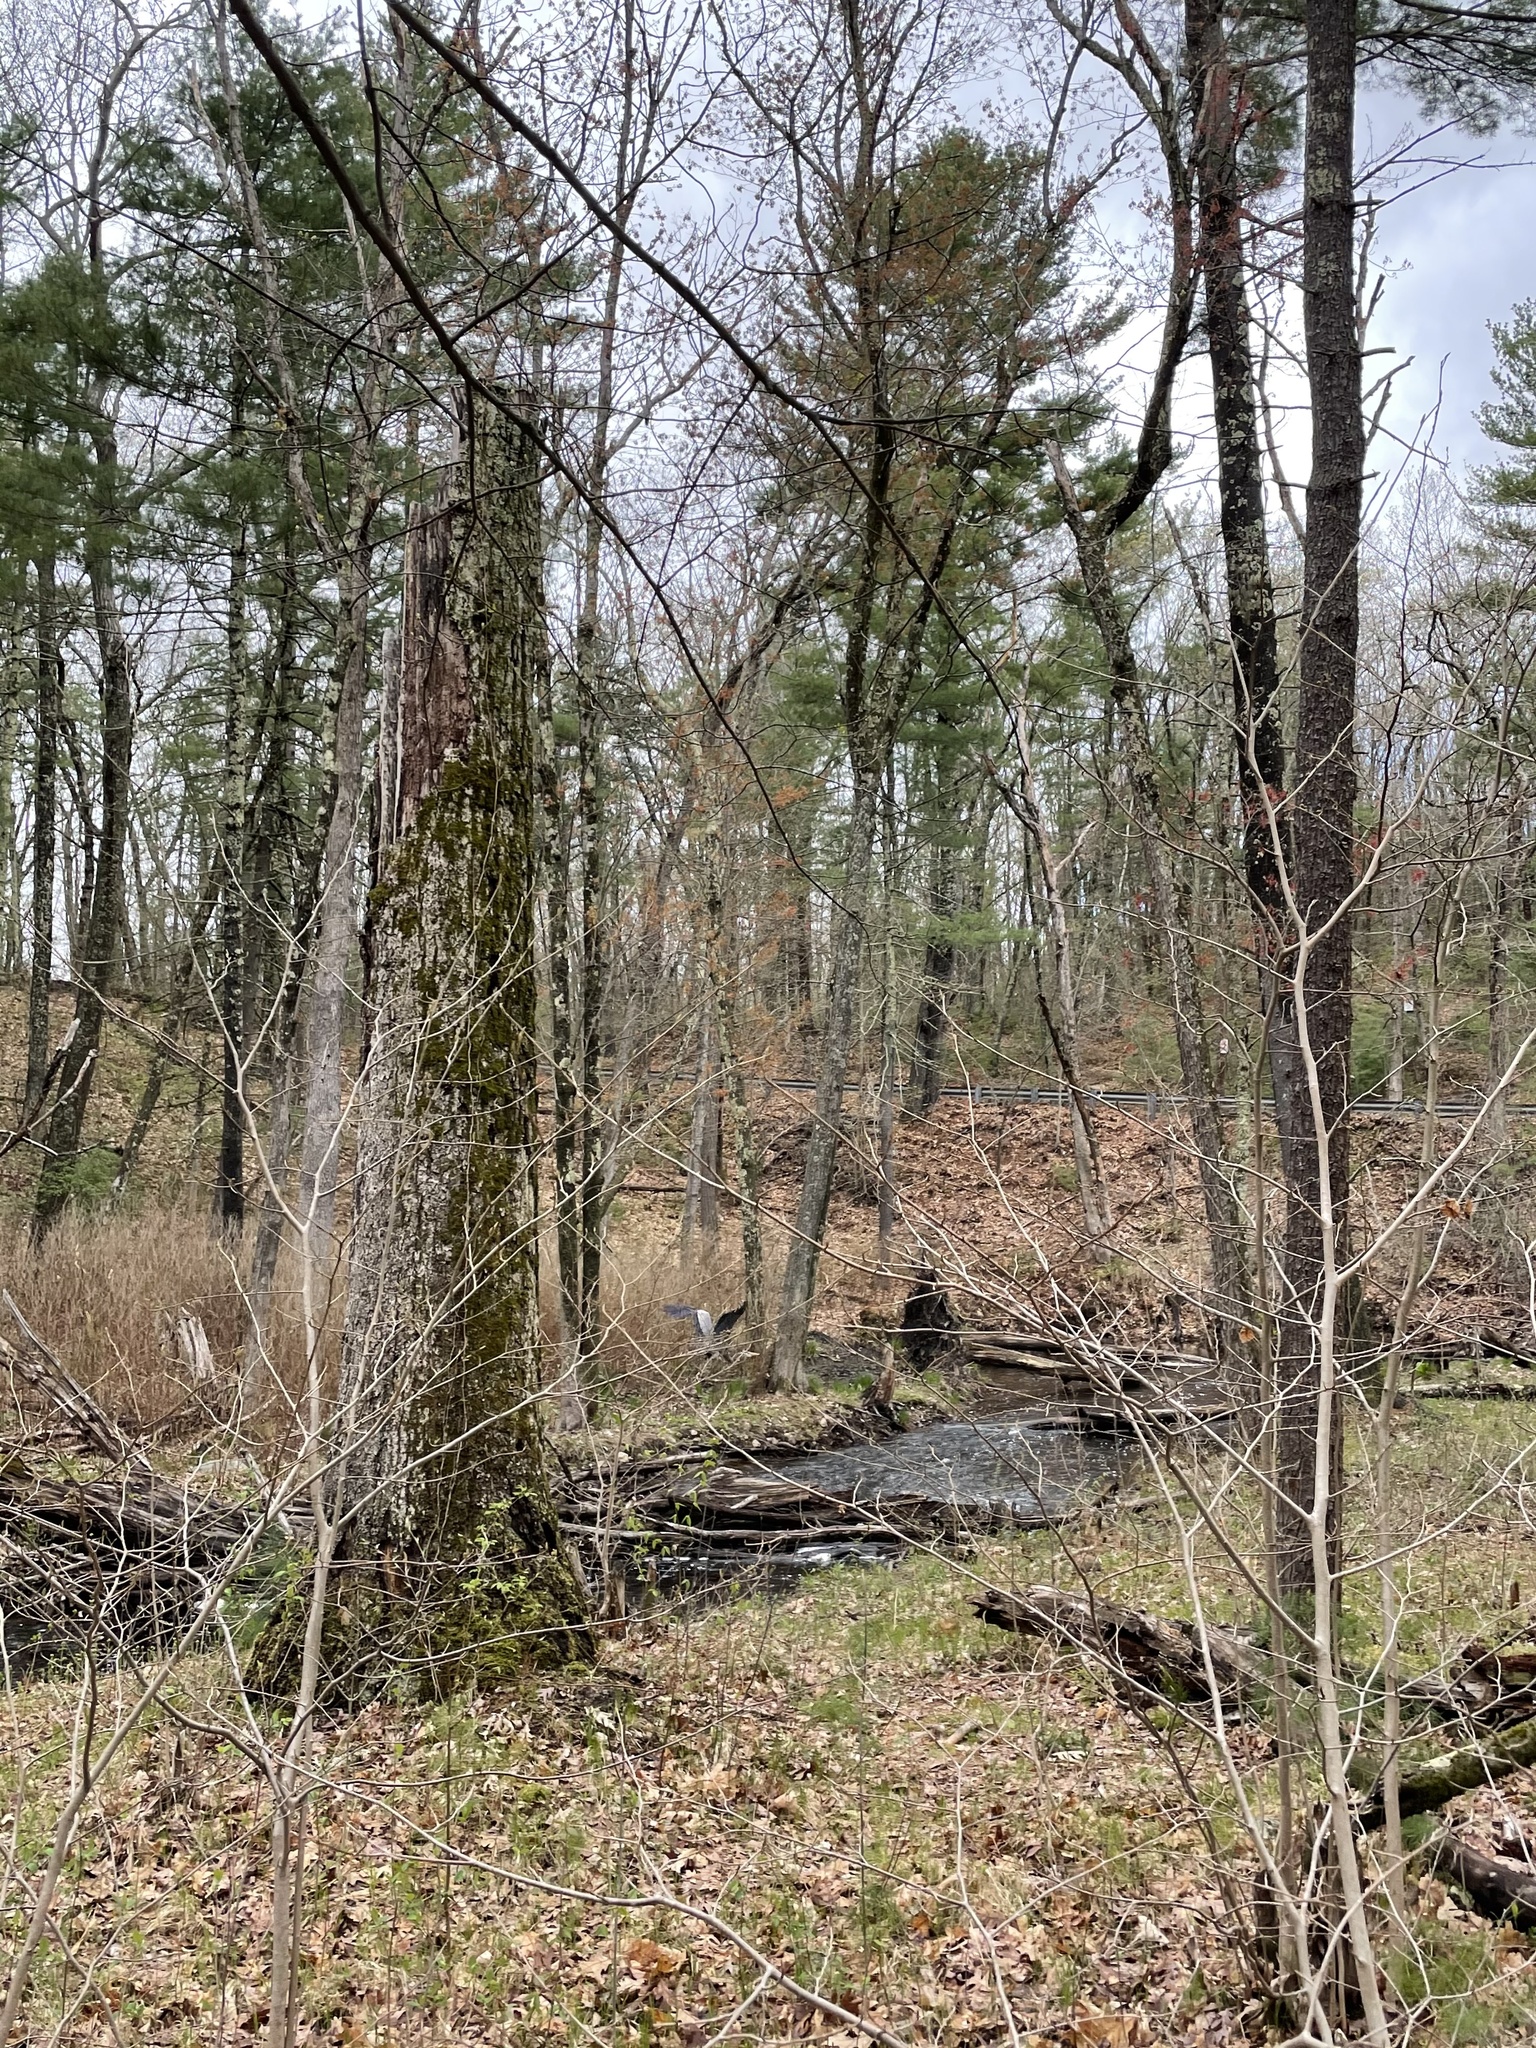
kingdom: Animalia
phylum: Chordata
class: Aves
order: Pelecaniformes
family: Ardeidae
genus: Ardea
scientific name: Ardea herodias
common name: Great blue heron
